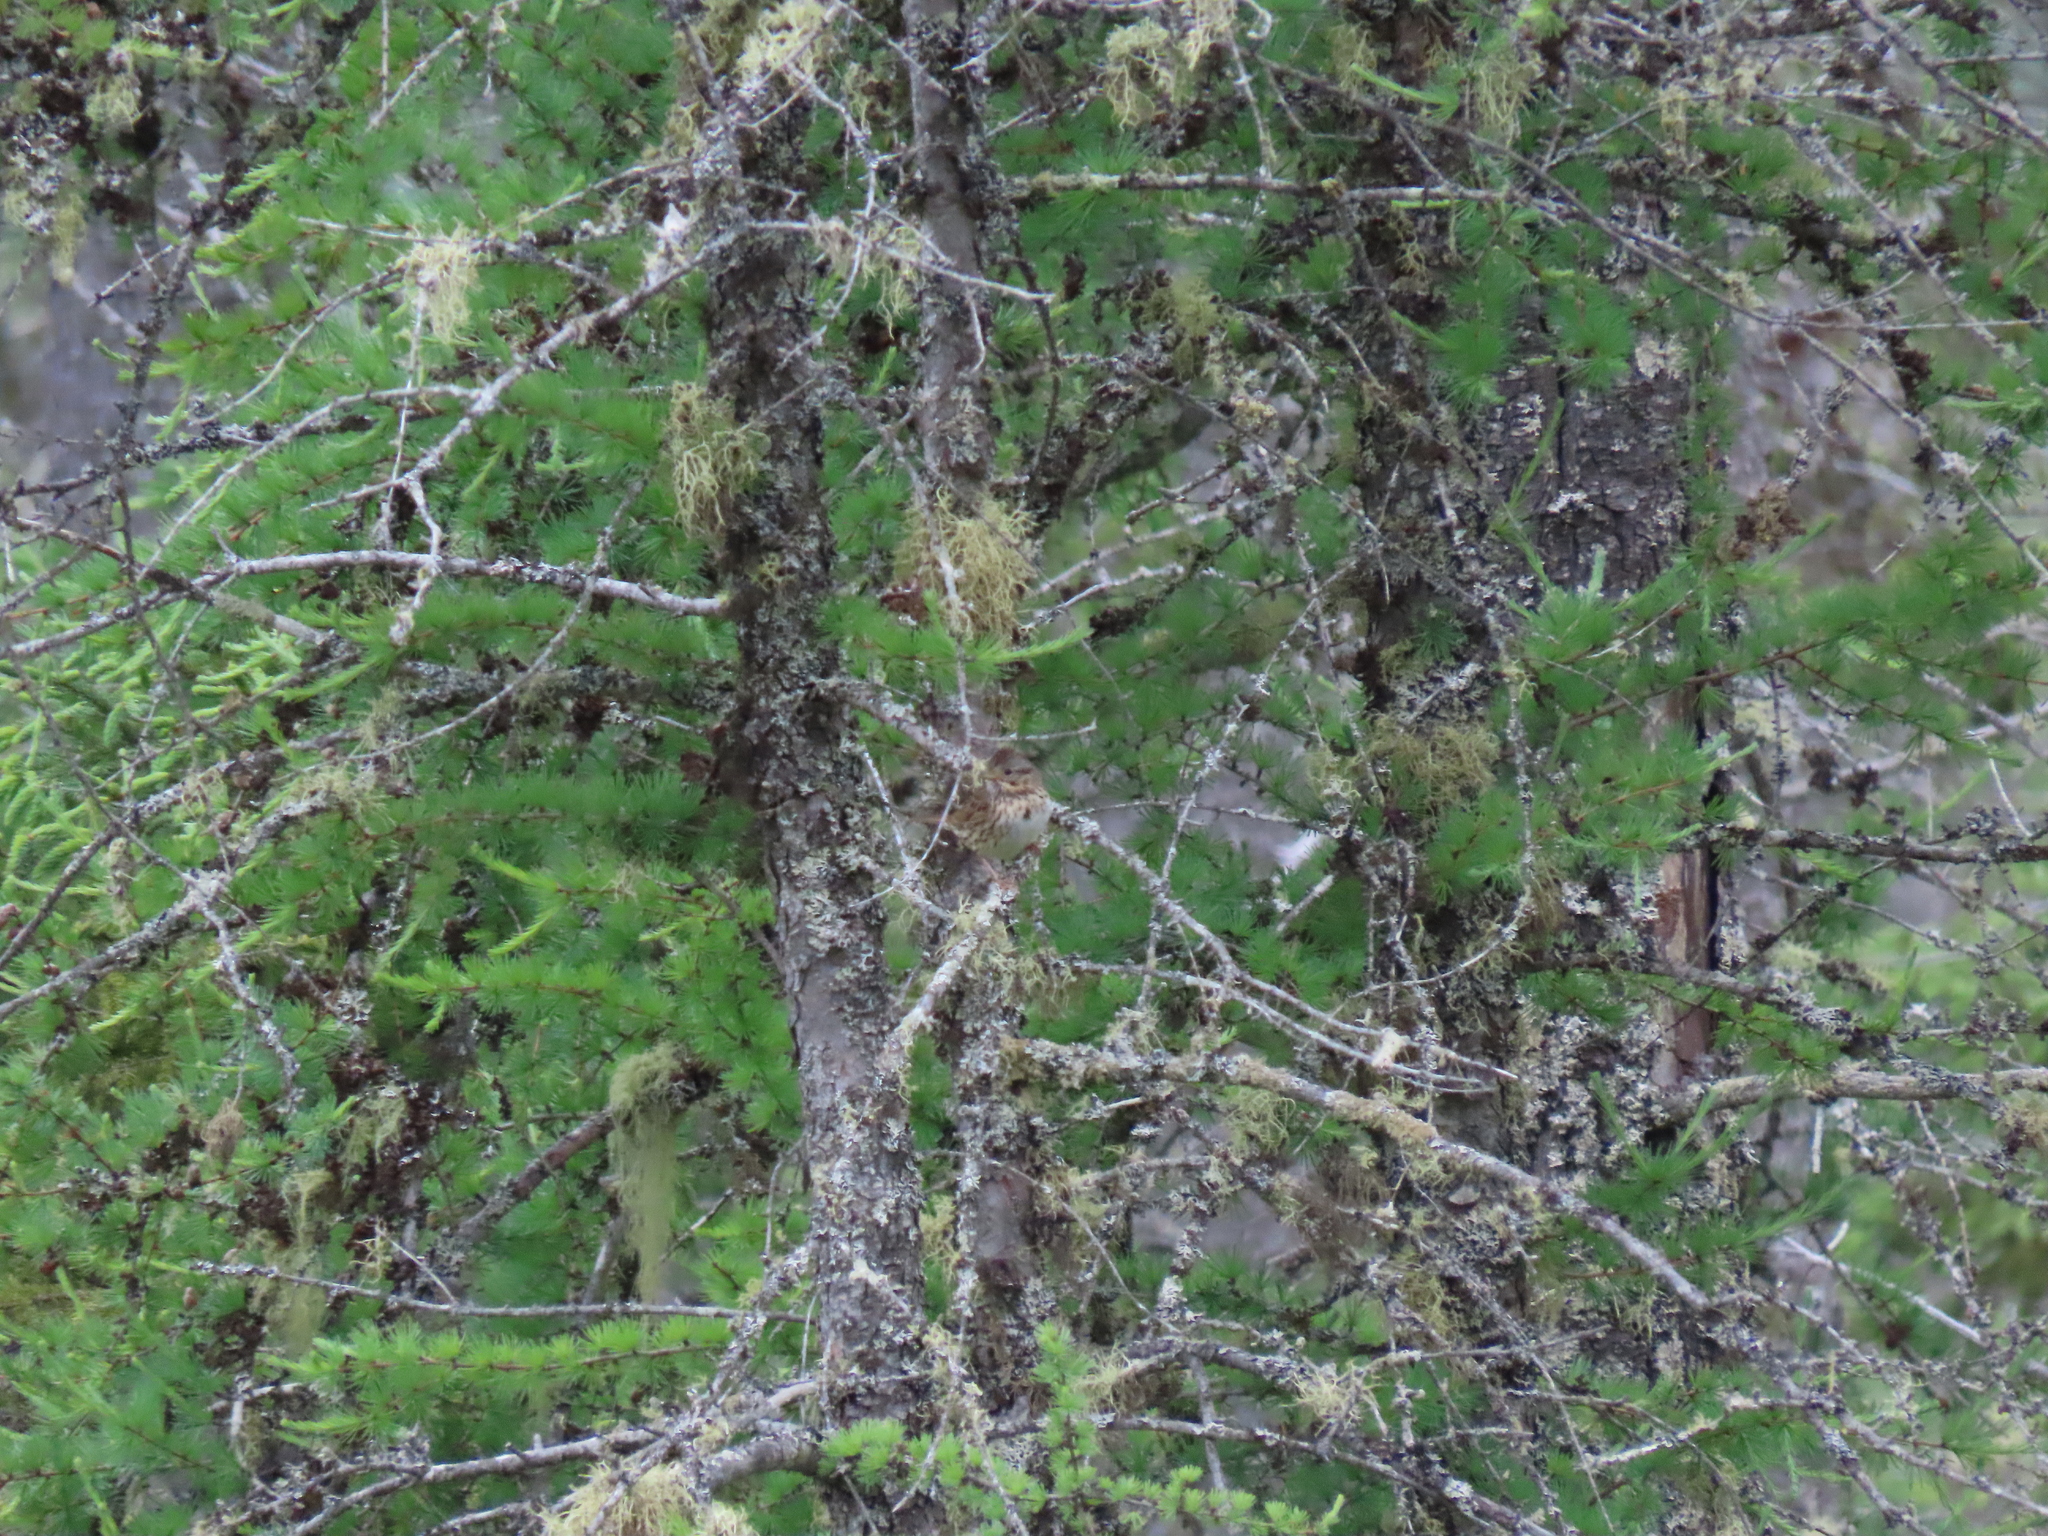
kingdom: Animalia
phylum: Chordata
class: Aves
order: Passeriformes
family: Passerellidae
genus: Melospiza
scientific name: Melospiza melodia
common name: Song sparrow
